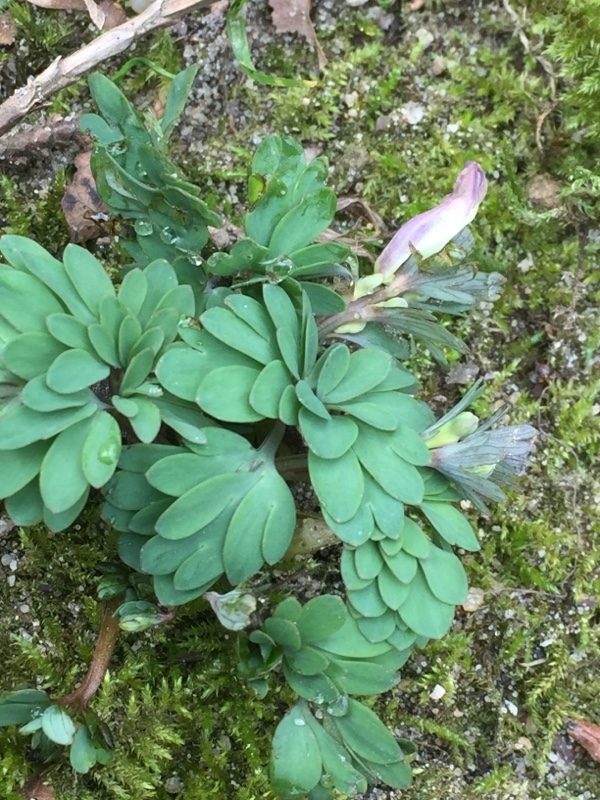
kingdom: Plantae
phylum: Tracheophyta
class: Magnoliopsida
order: Ranunculales
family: Papaveraceae
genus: Corydalis
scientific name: Corydalis solida
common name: Bird-in-a-bush
